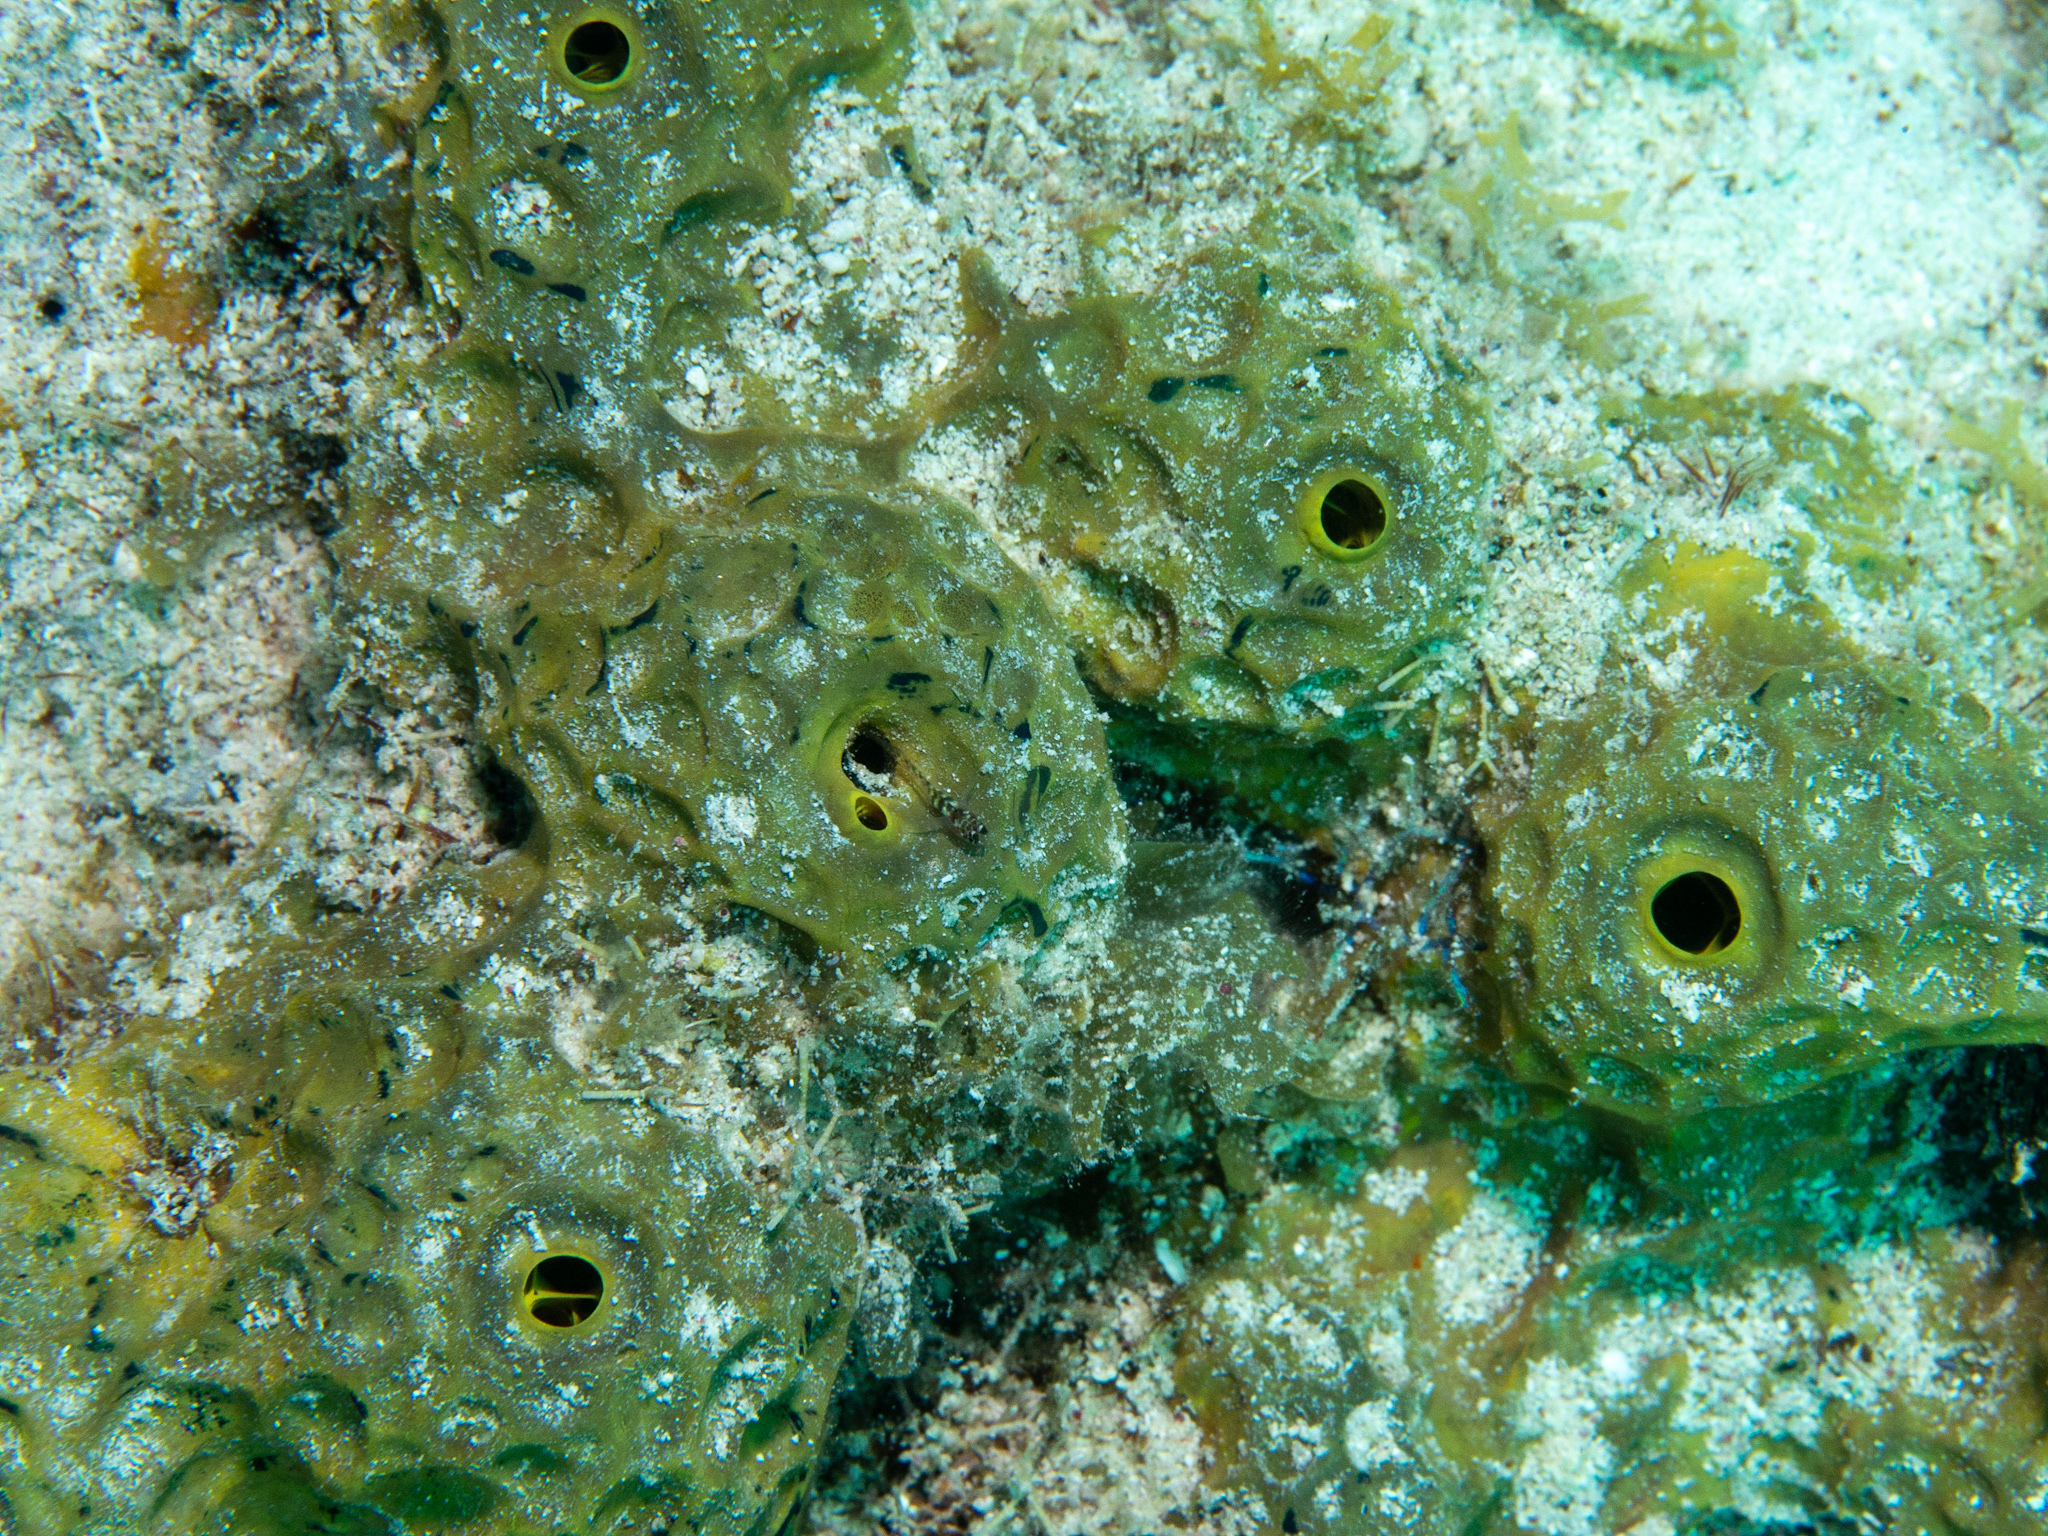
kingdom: Animalia
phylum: Porifera
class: Demospongiae
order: Verongiida
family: Aplysinidae
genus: Verongula
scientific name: Verongula rigida
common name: Pitted sponge
